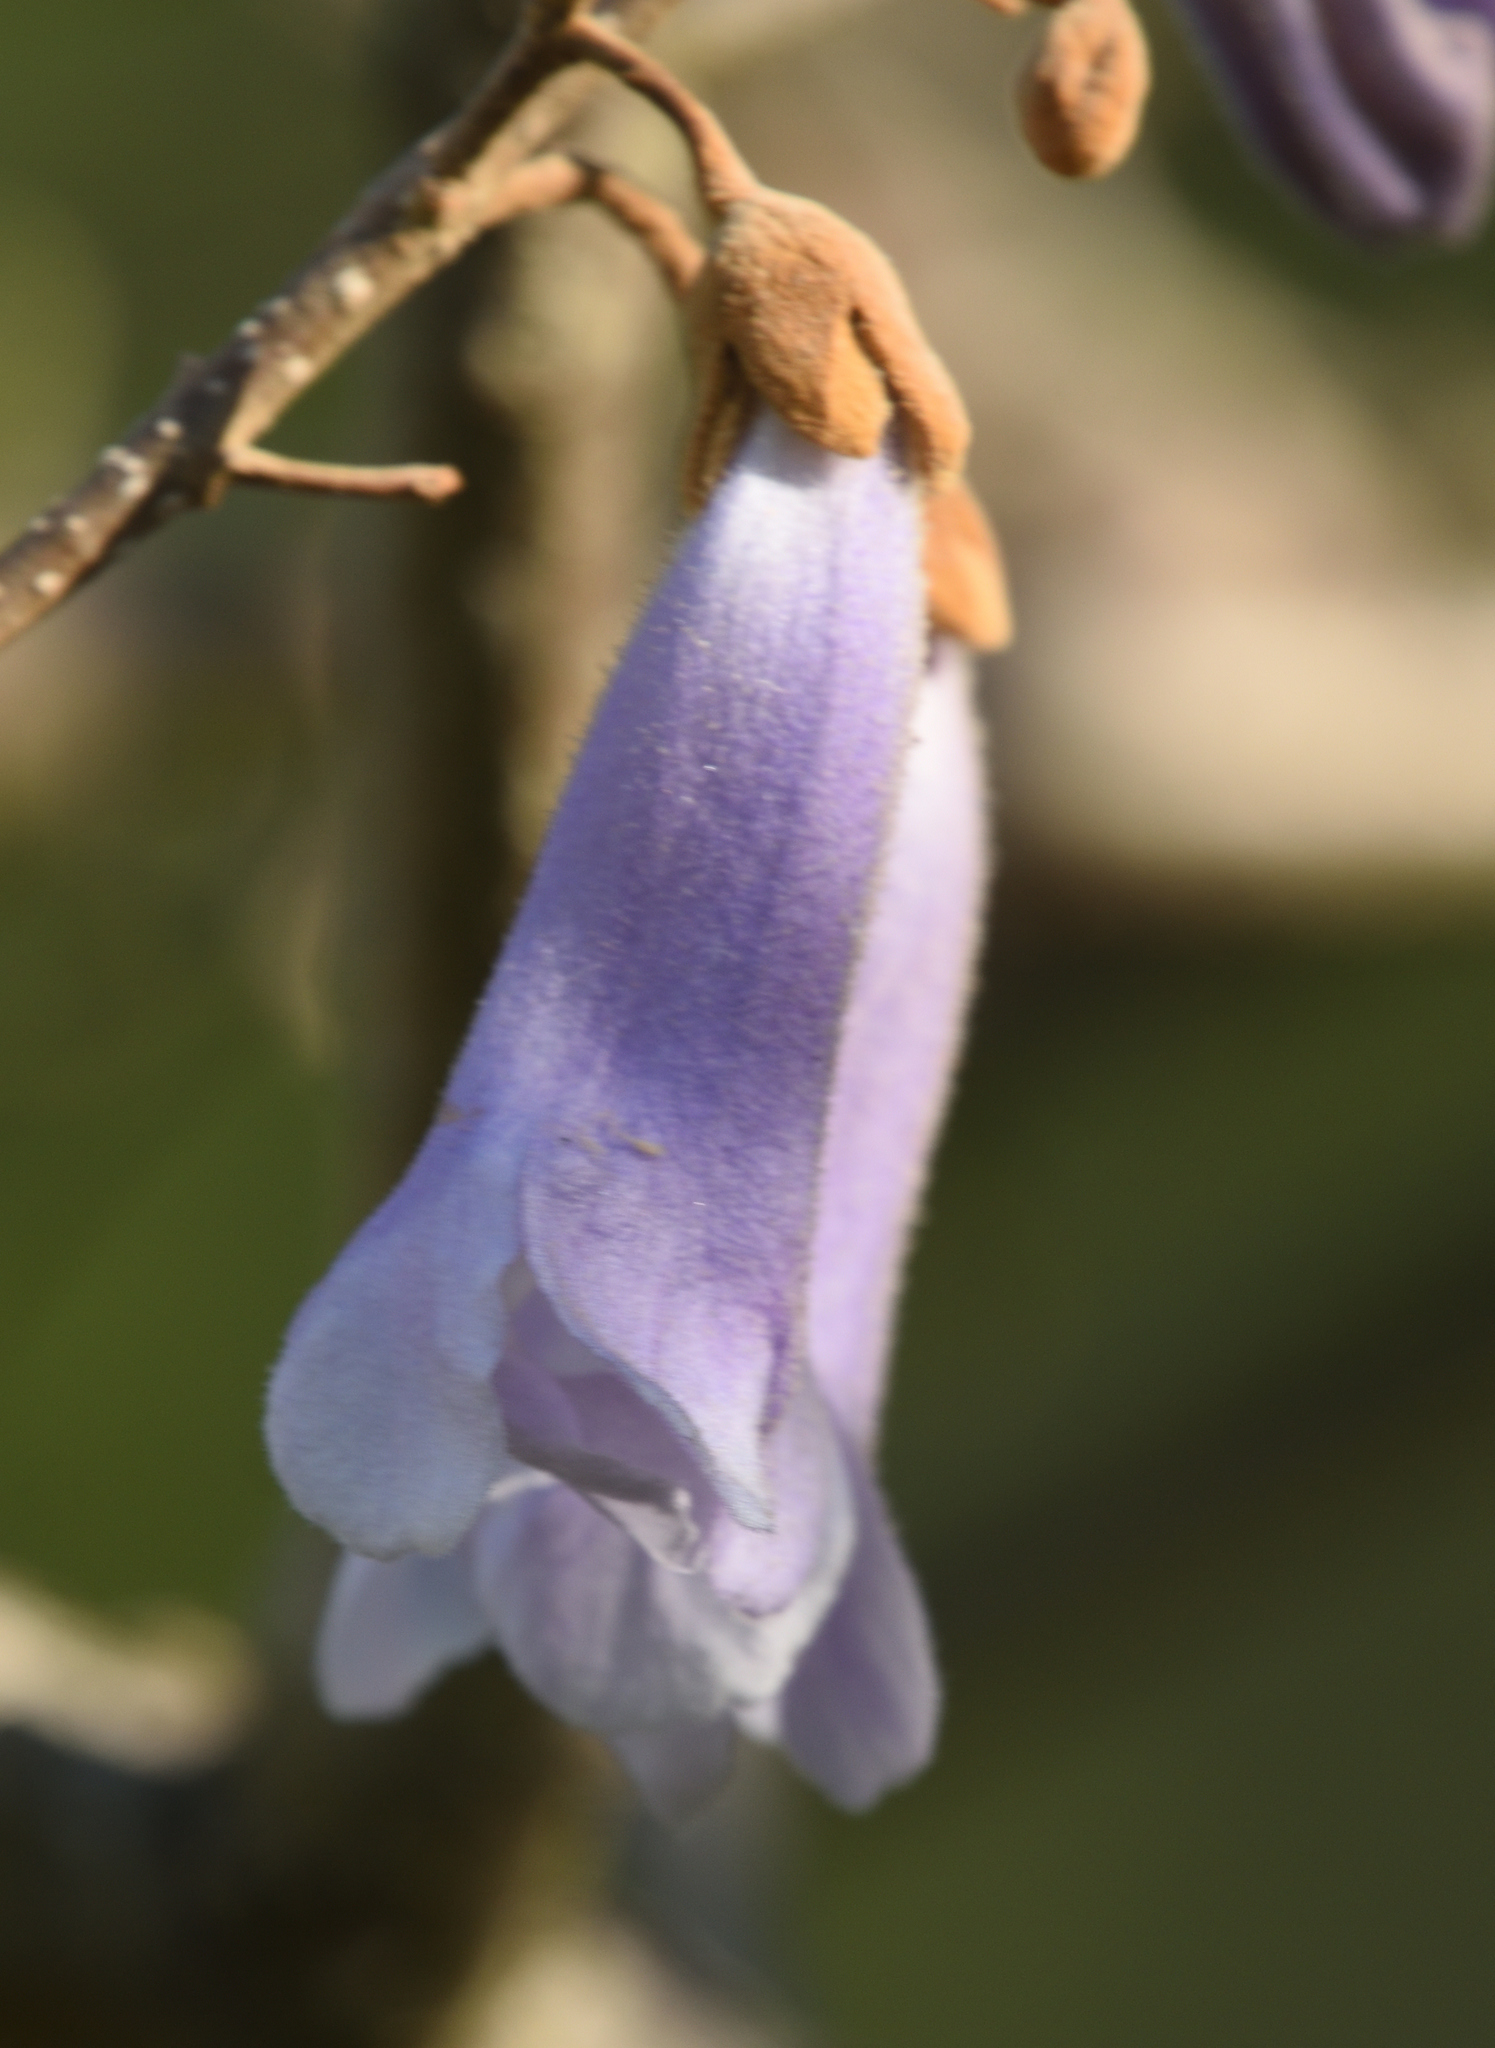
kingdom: Plantae
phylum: Tracheophyta
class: Magnoliopsida
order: Lamiales
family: Paulowniaceae
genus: Paulownia
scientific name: Paulownia tomentosa
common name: Foxglove-tree
